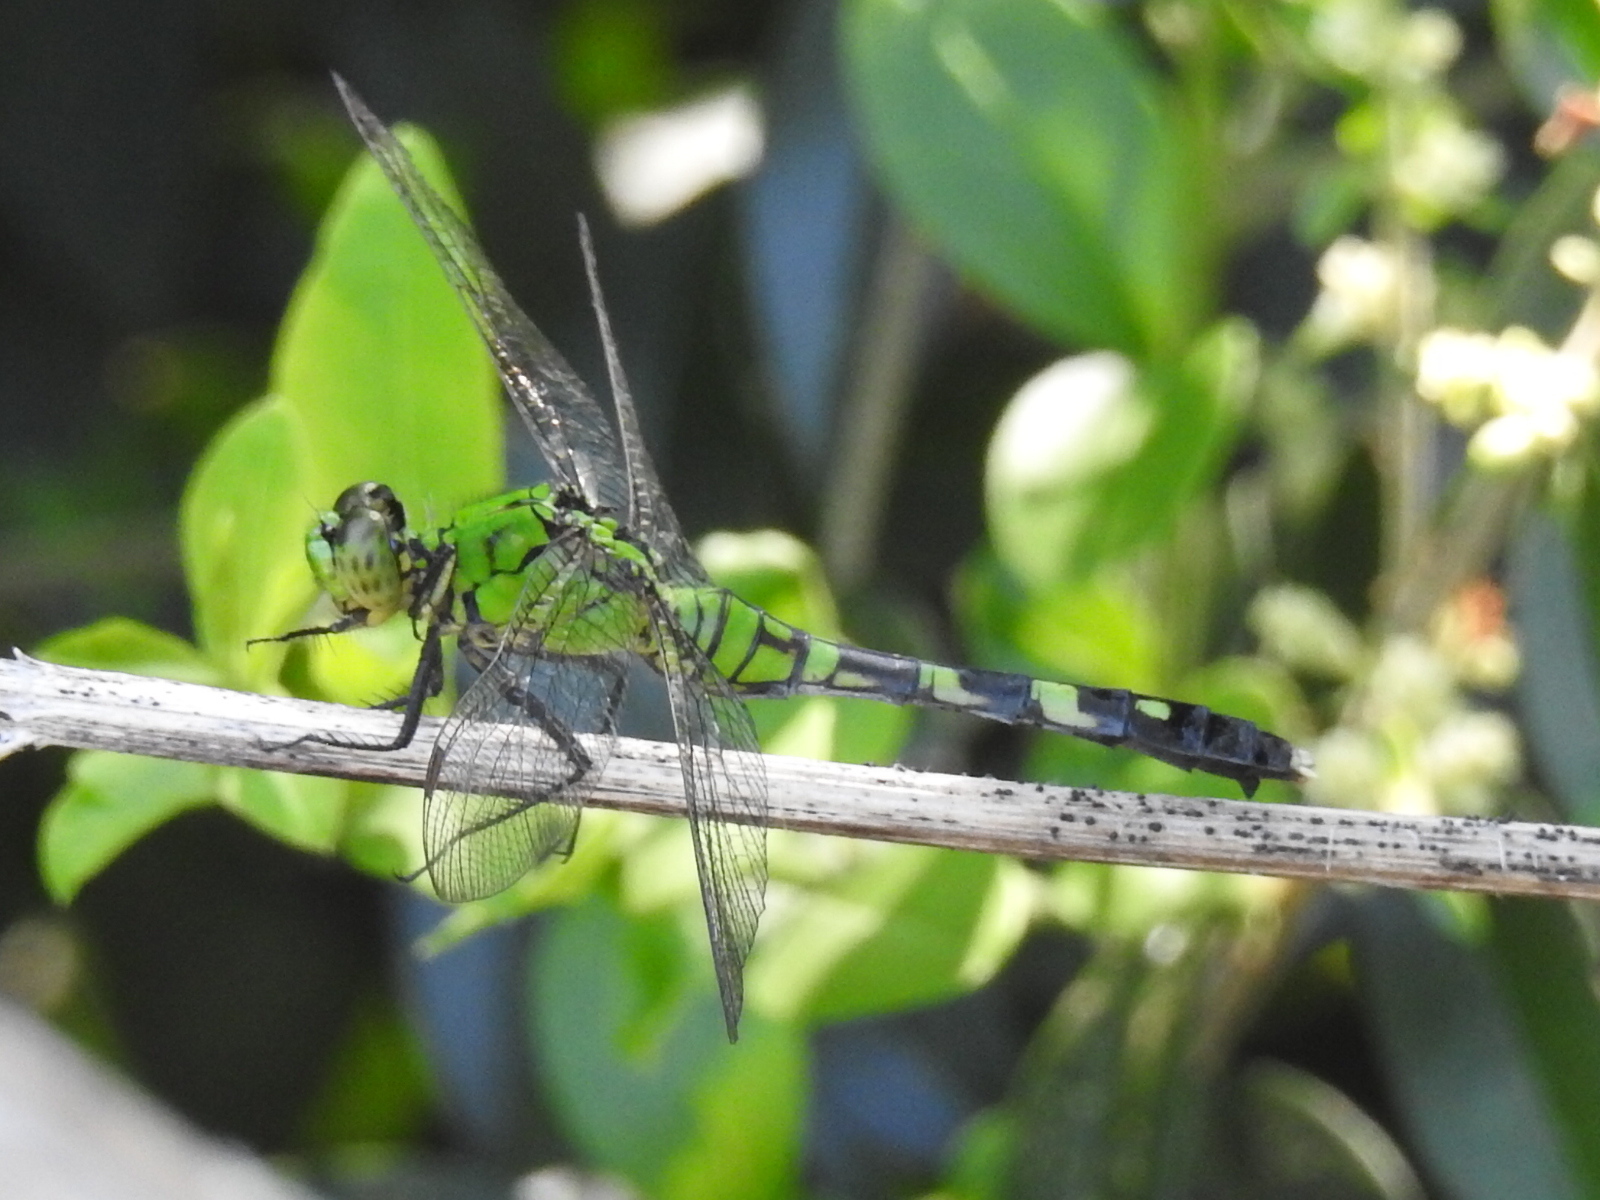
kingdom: Animalia
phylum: Arthropoda
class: Insecta
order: Odonata
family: Libellulidae
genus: Erythemis
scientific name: Erythemis simplicicollis
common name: Eastern pondhawk
